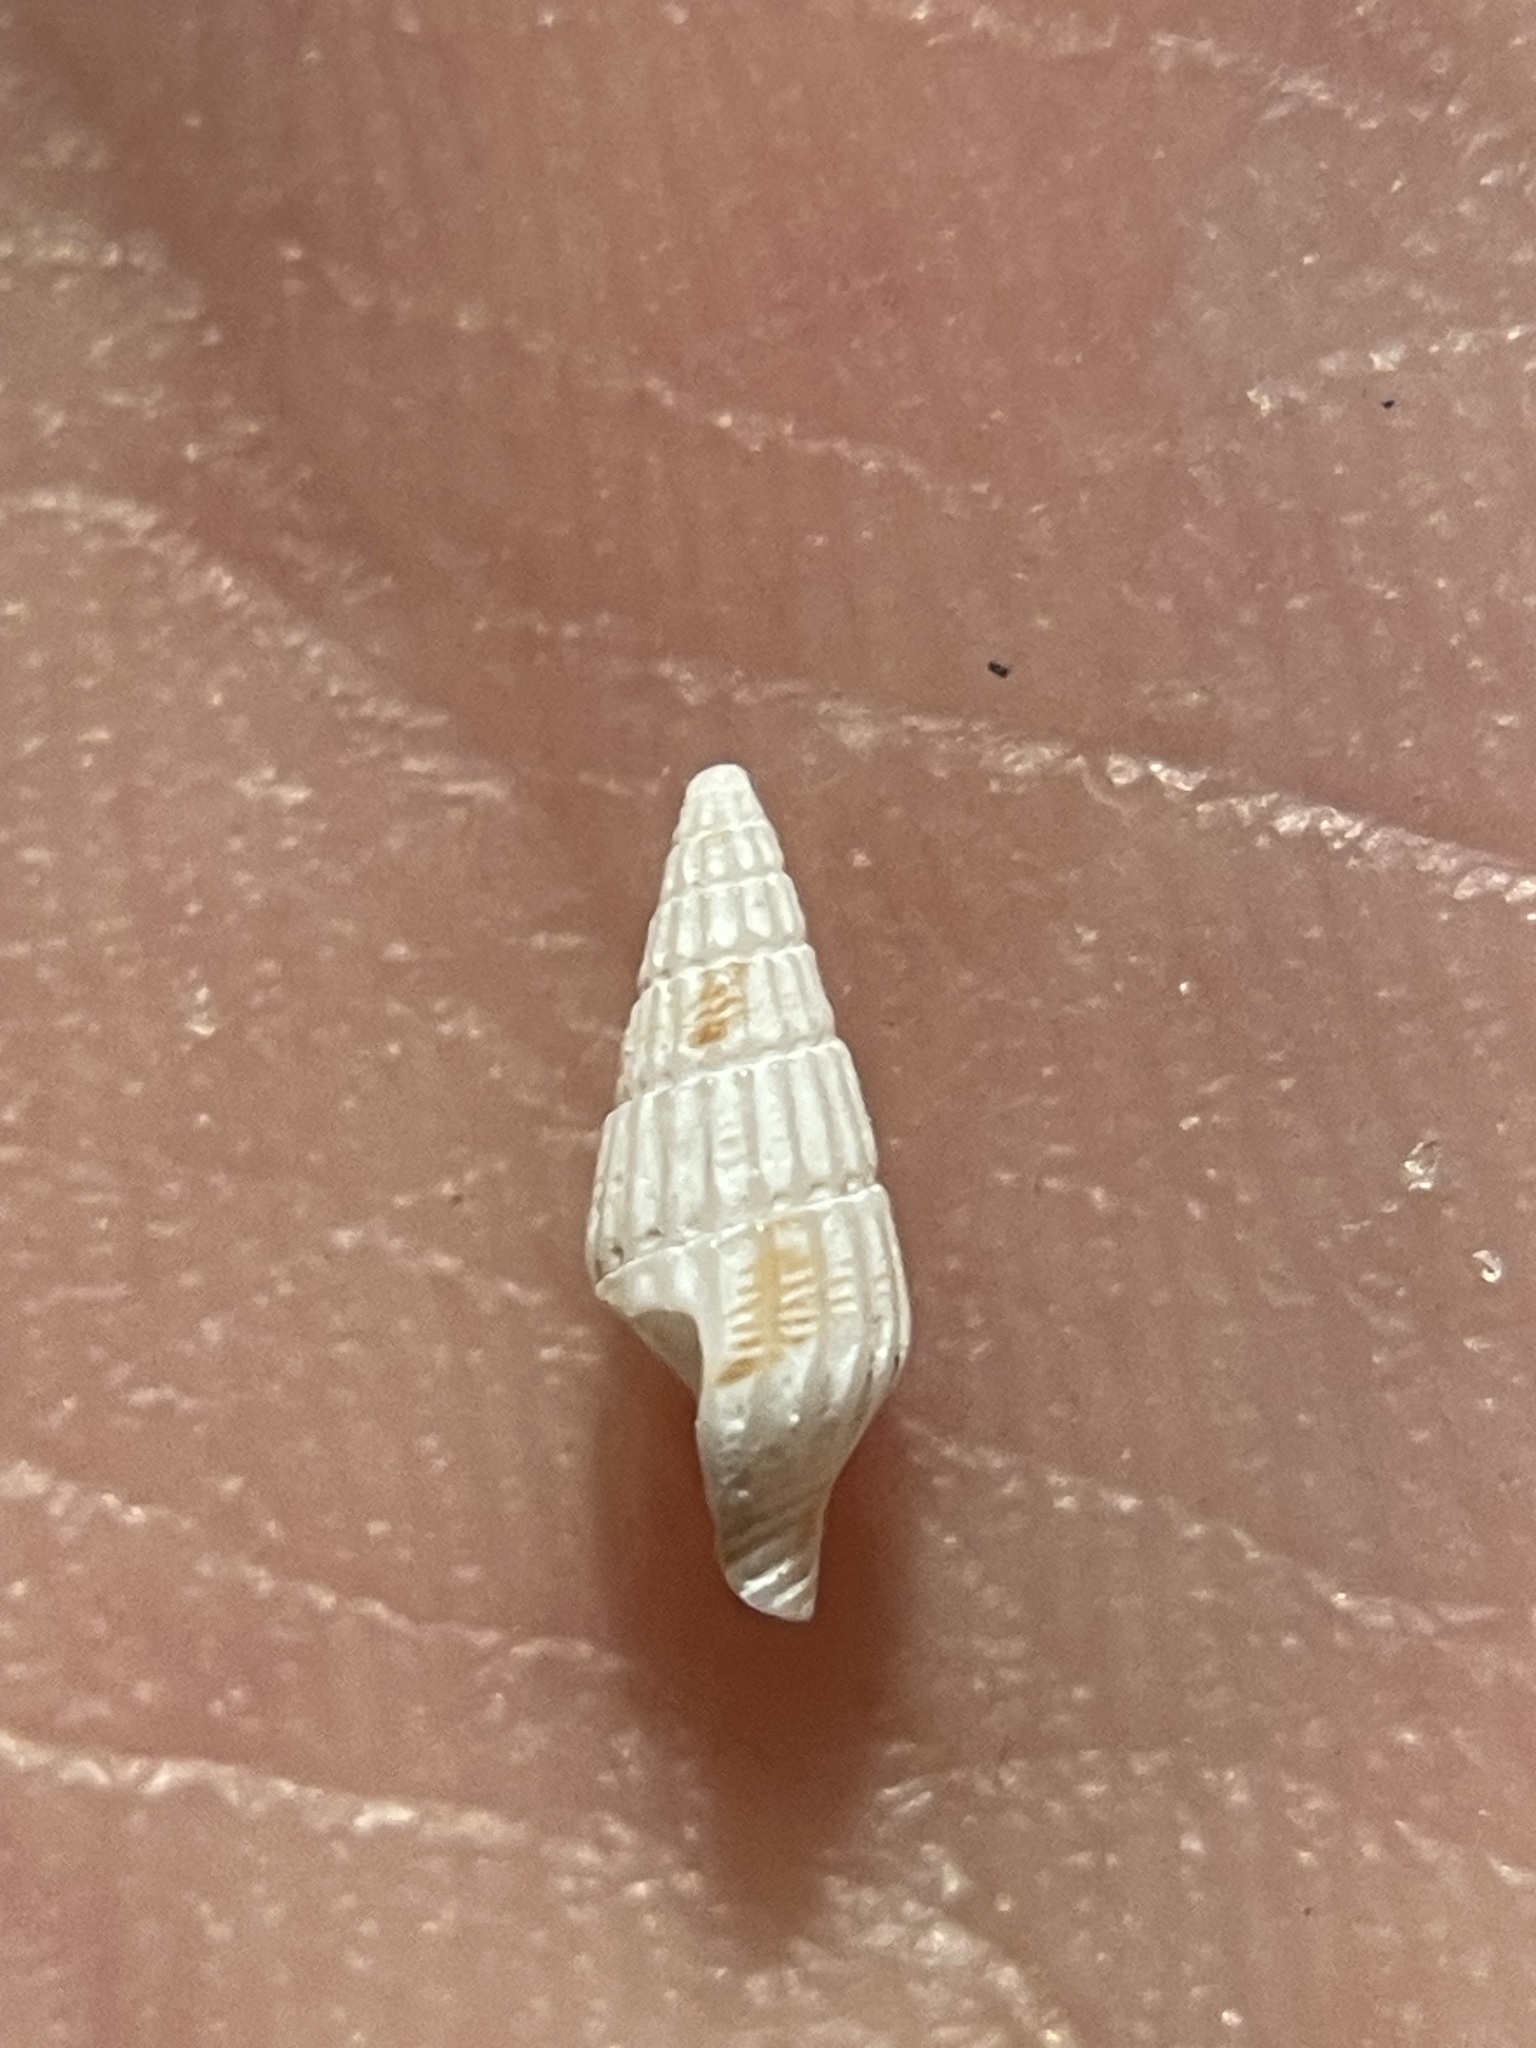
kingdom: Animalia
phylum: Mollusca
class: Gastropoda
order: Neogastropoda
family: Columbellidae
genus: Suturoglypta
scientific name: Suturoglypta iontha
